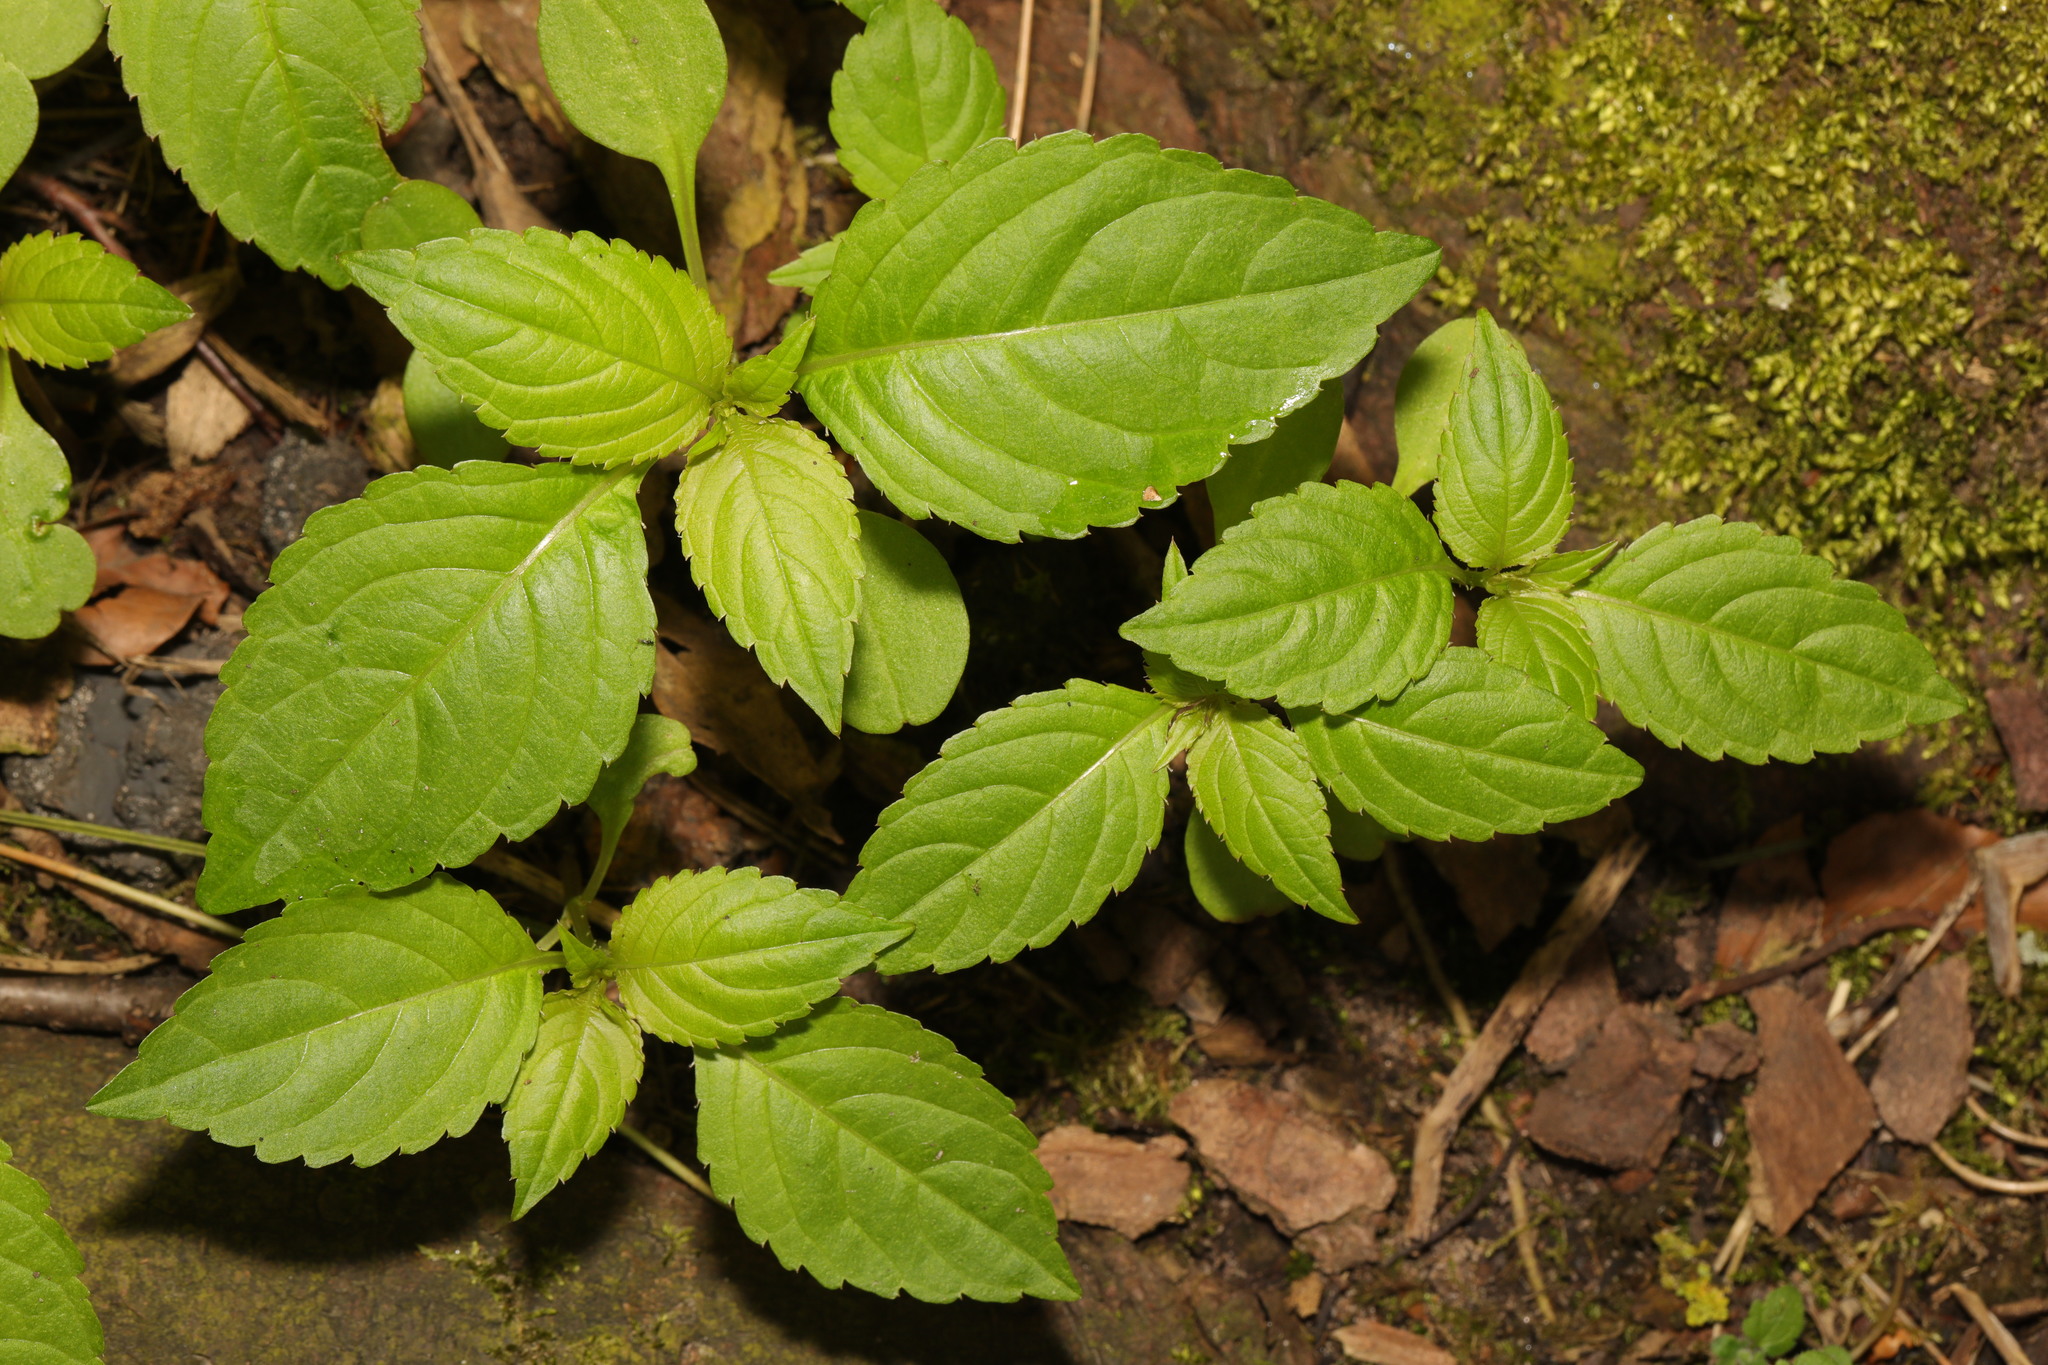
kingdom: Plantae
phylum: Tracheophyta
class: Magnoliopsida
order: Ericales
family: Balsaminaceae
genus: Impatiens
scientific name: Impatiens parviflora
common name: Small balsam
